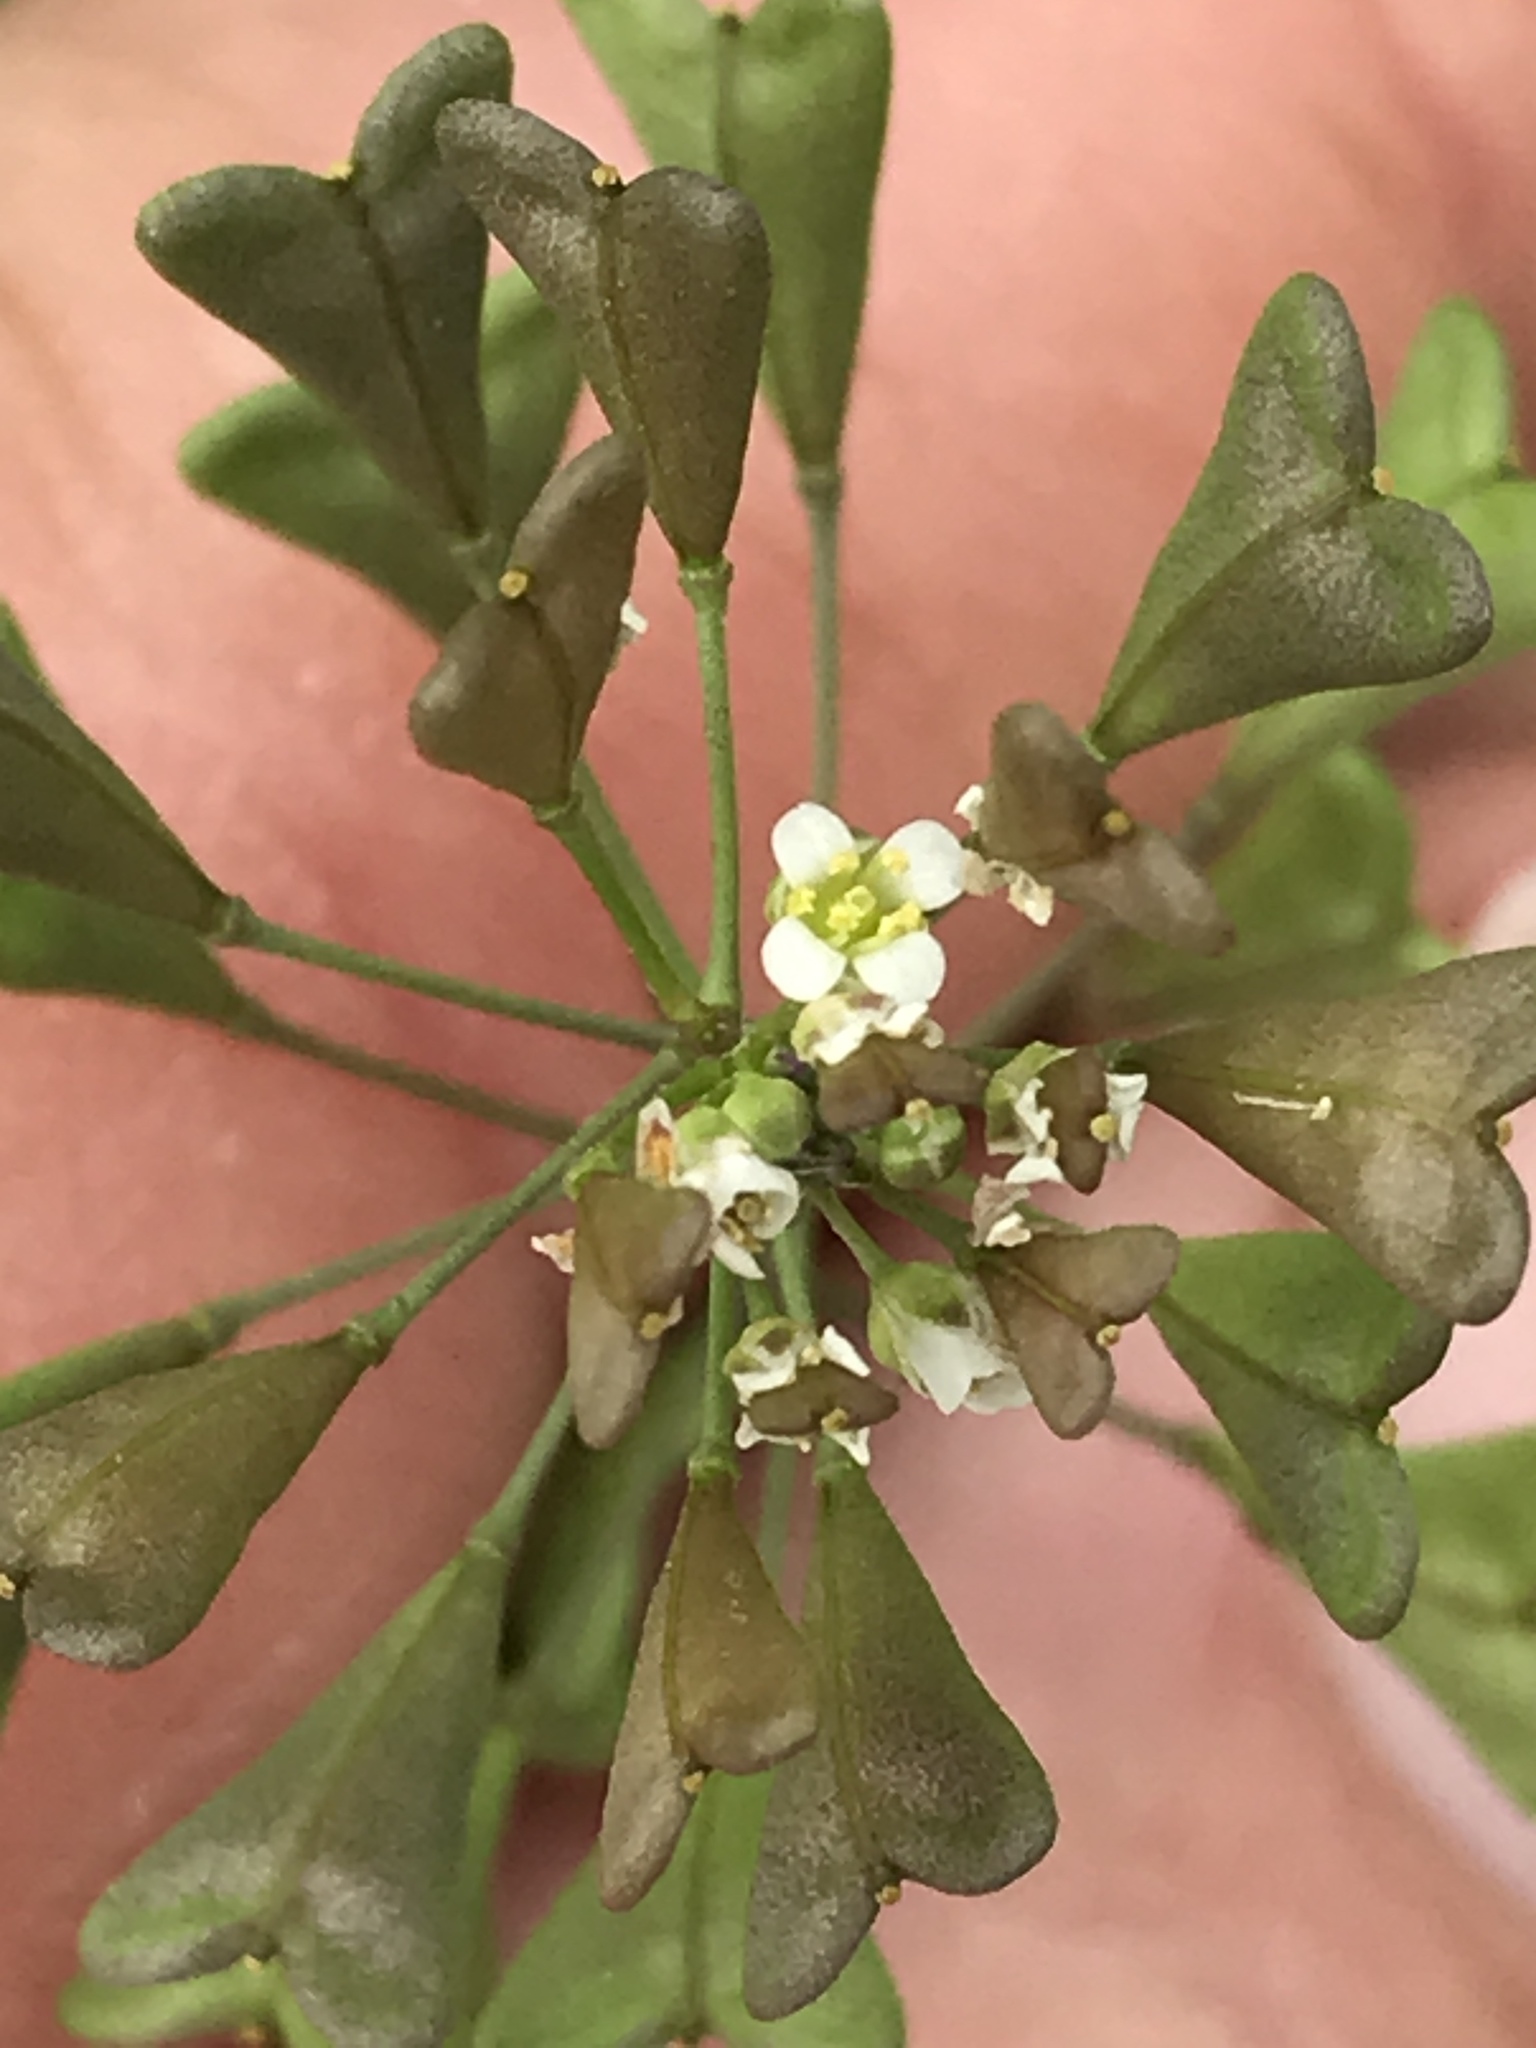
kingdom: Plantae
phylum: Tracheophyta
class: Magnoliopsida
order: Brassicales
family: Brassicaceae
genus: Capsella
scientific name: Capsella bursa-pastoris
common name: Shepherd's purse
